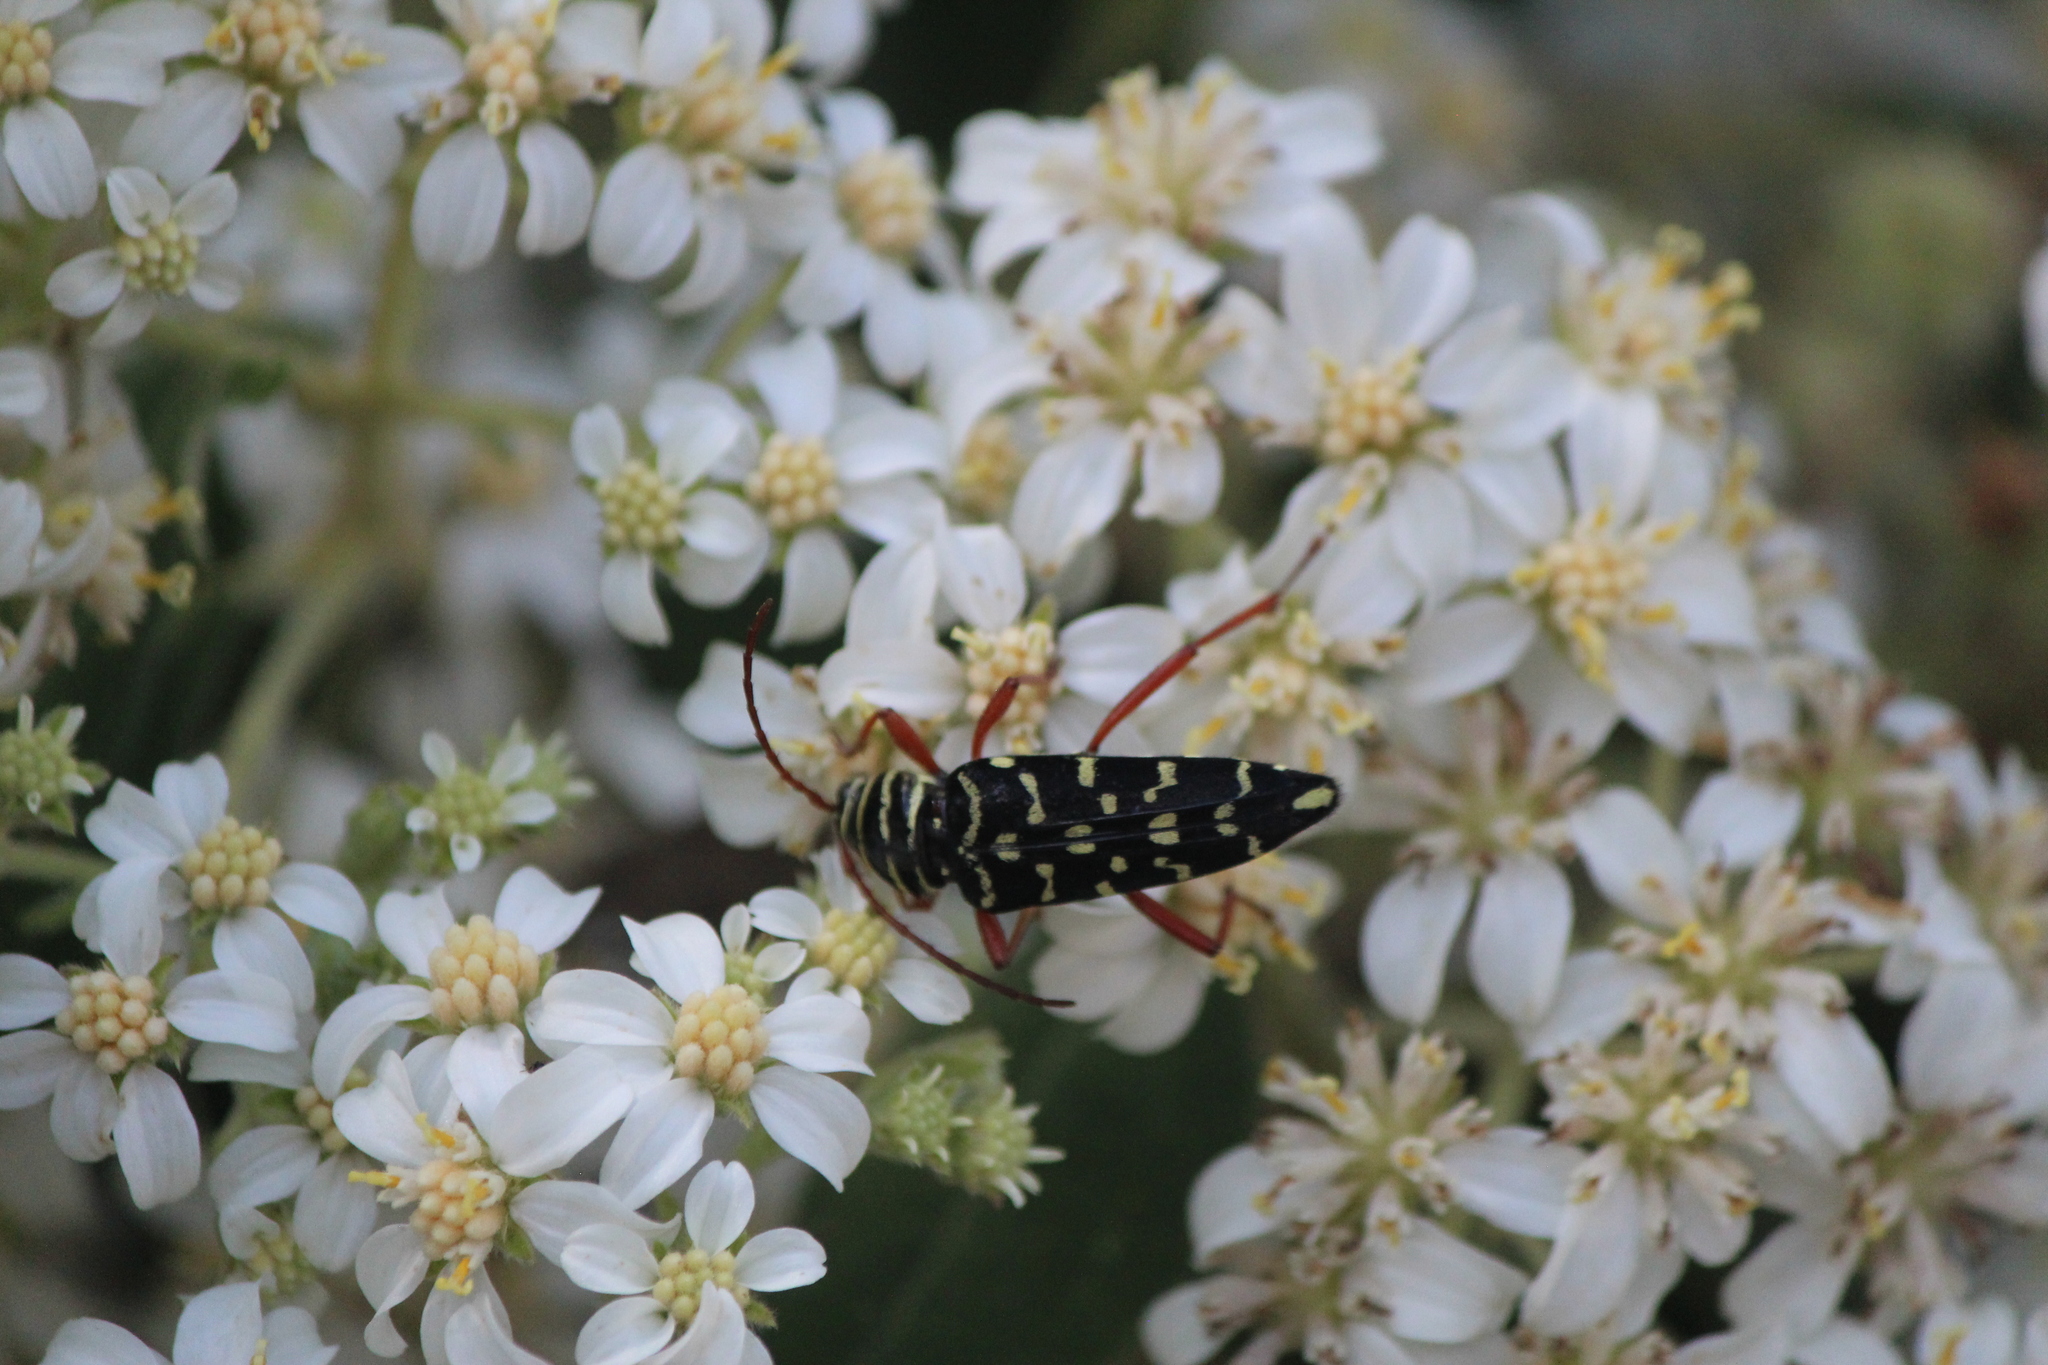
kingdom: Animalia
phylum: Arthropoda
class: Insecta
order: Coleoptera
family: Cerambycidae
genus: Placosternus
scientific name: Placosternus erythropus
